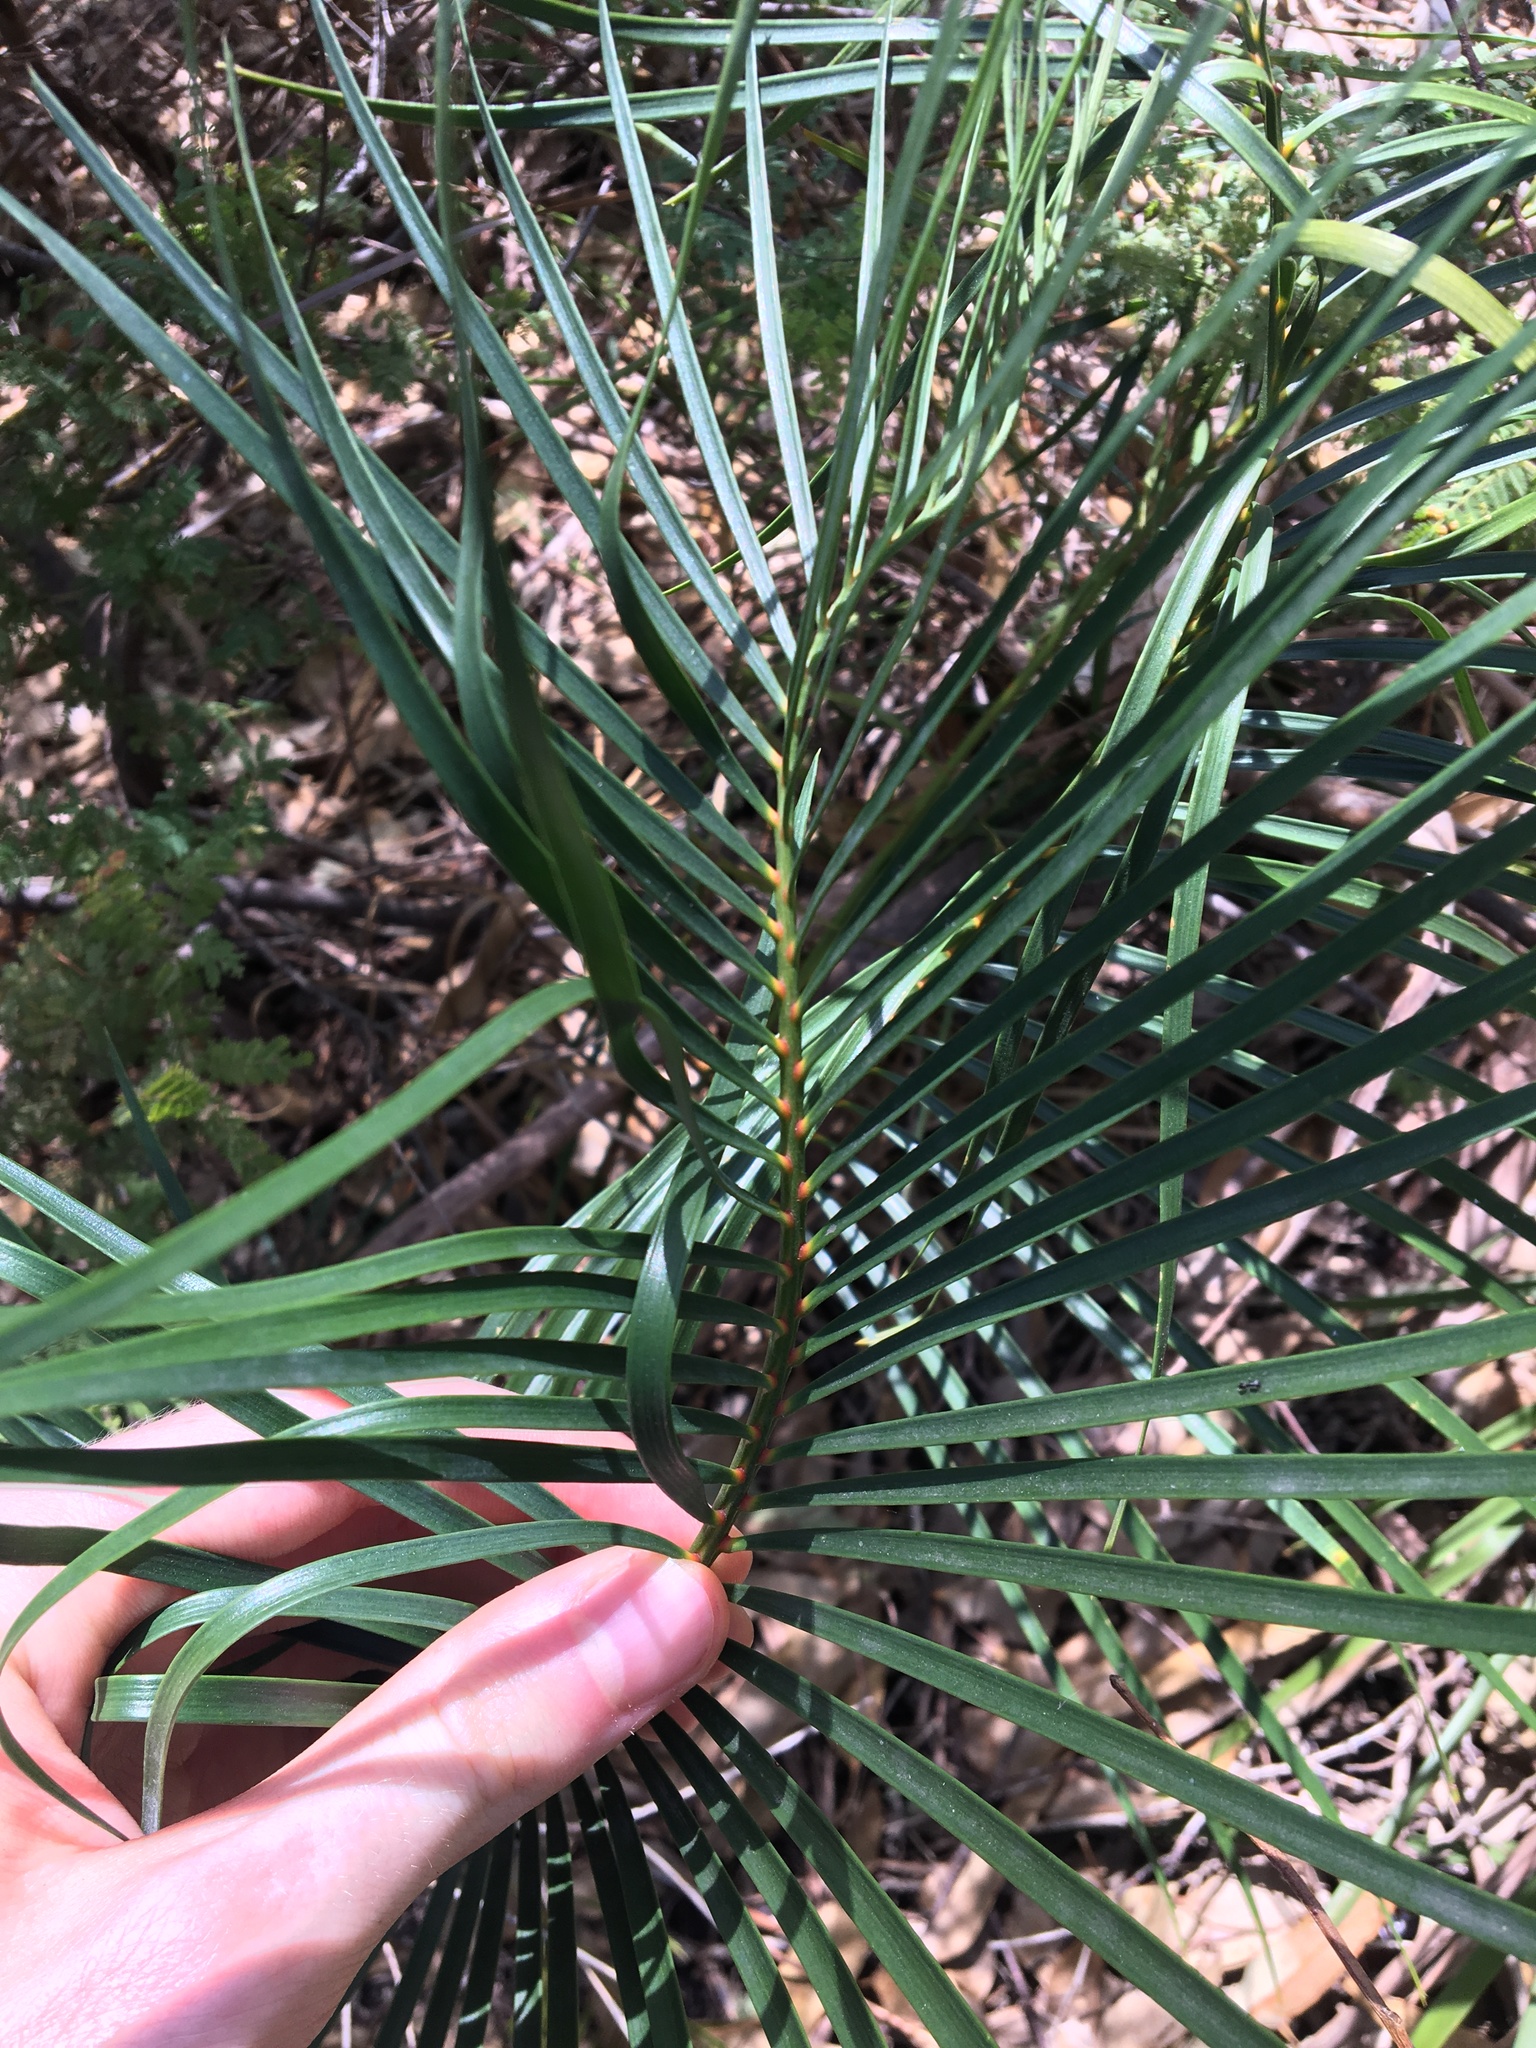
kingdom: Plantae
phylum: Tracheophyta
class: Cycadopsida
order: Cycadales
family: Zamiaceae
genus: Macrozamia
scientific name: Macrozamia spiralis
